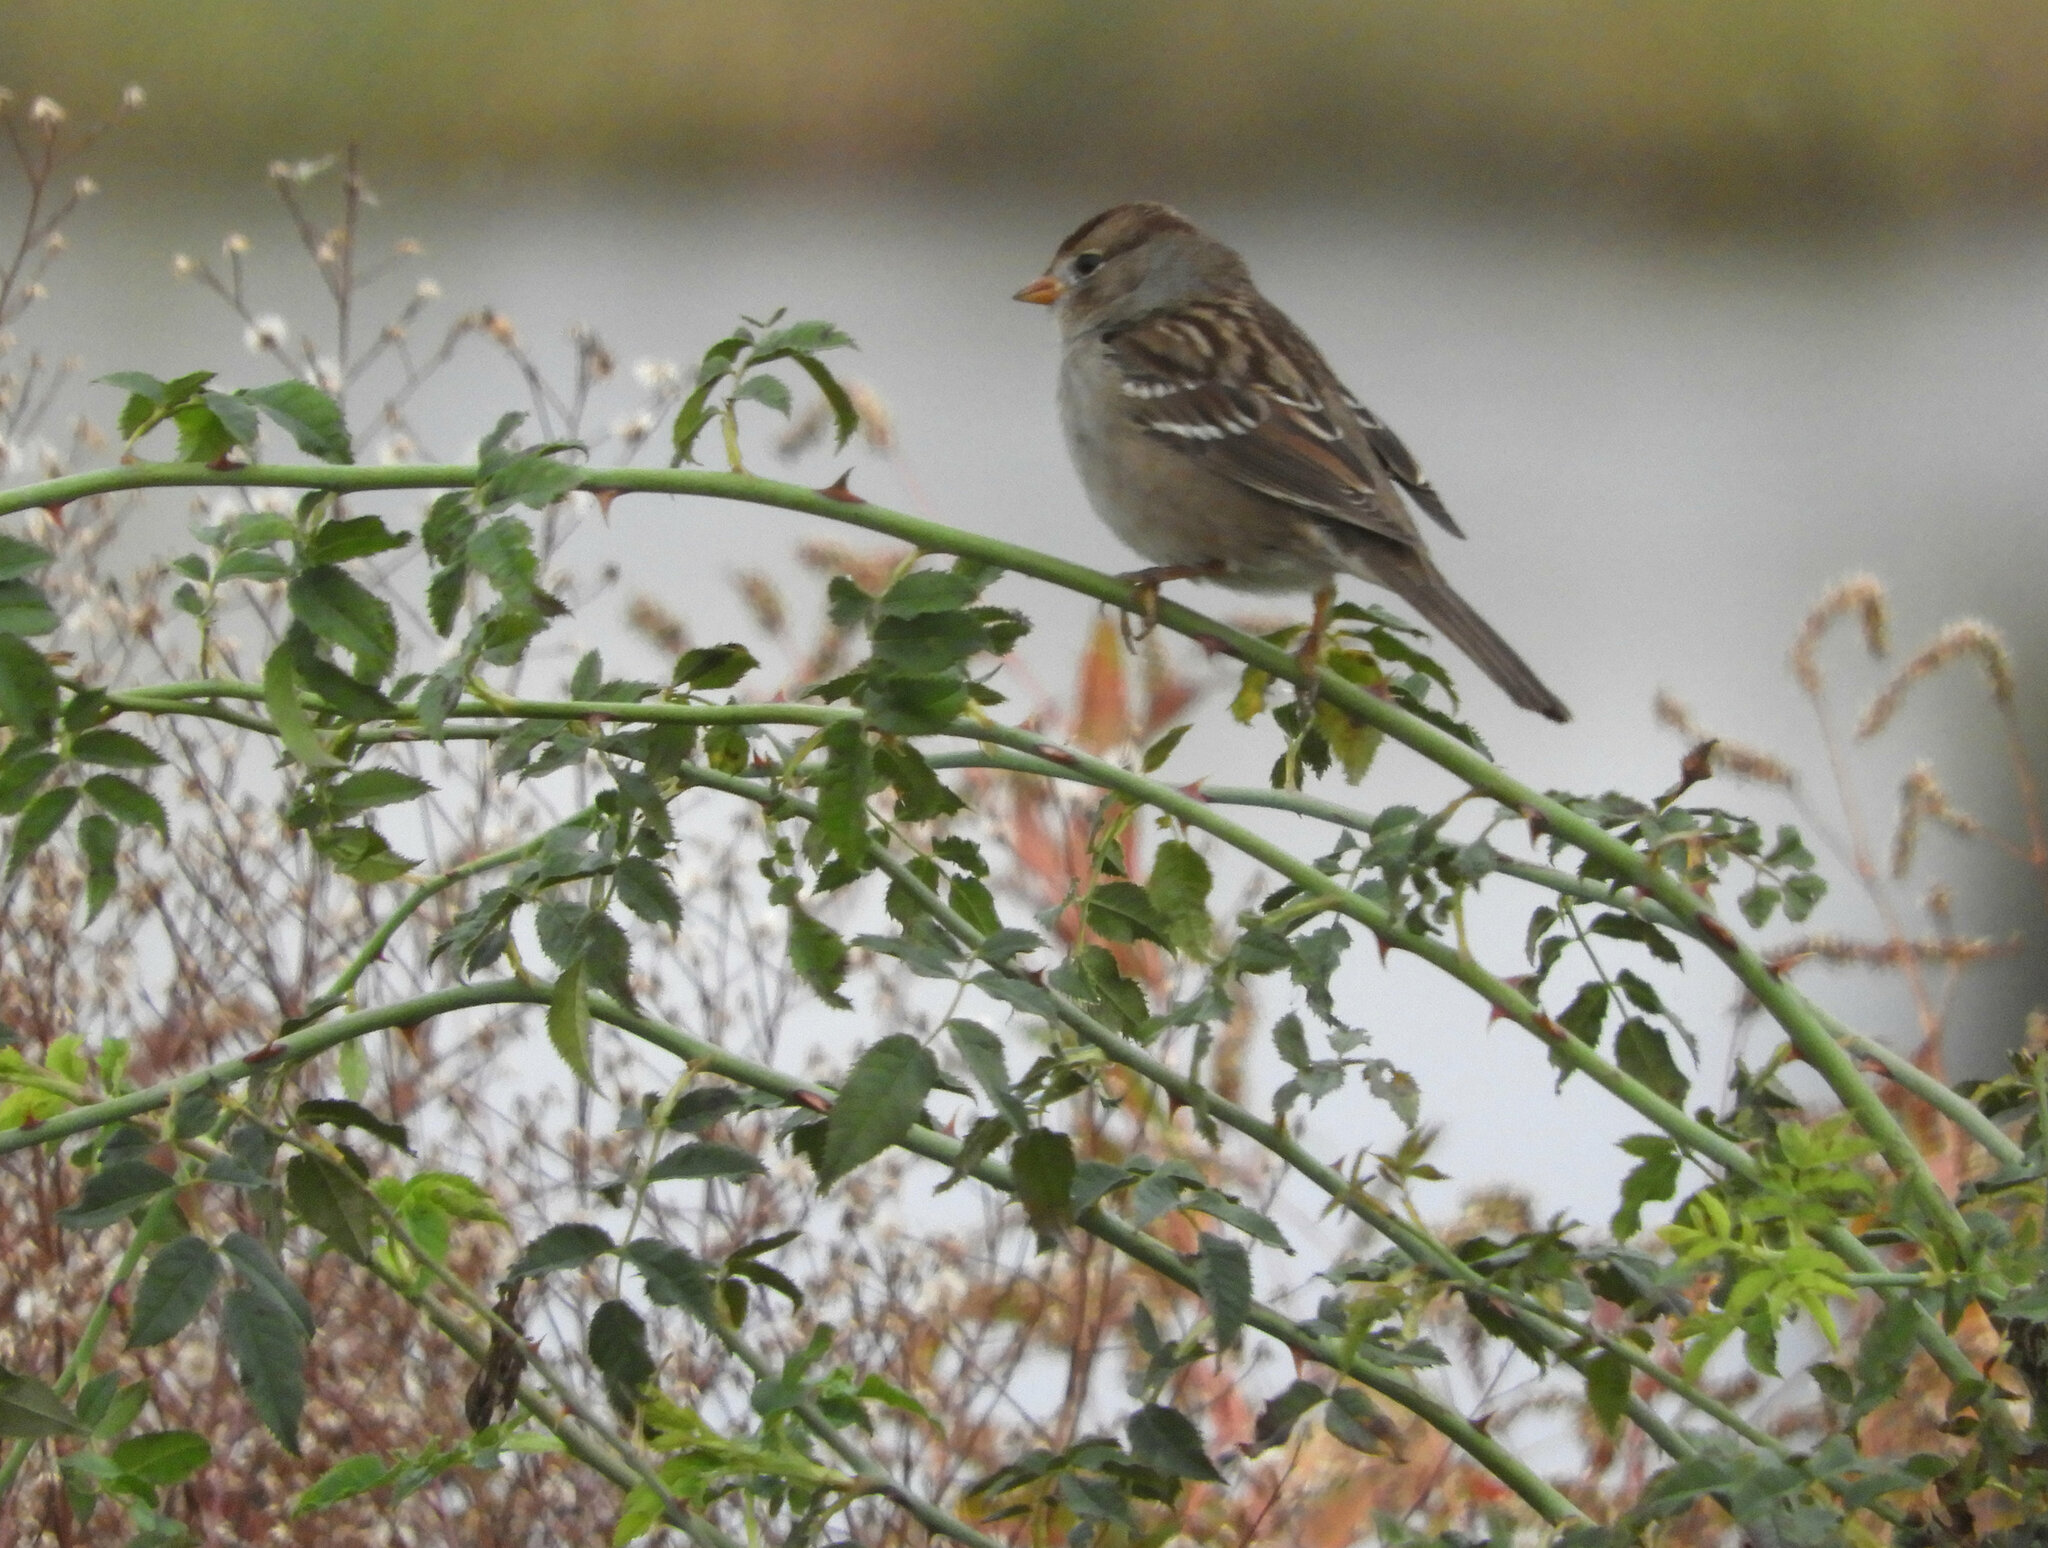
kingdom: Animalia
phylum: Chordata
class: Aves
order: Passeriformes
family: Passerellidae
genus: Zonotrichia
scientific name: Zonotrichia leucophrys
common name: White-crowned sparrow
